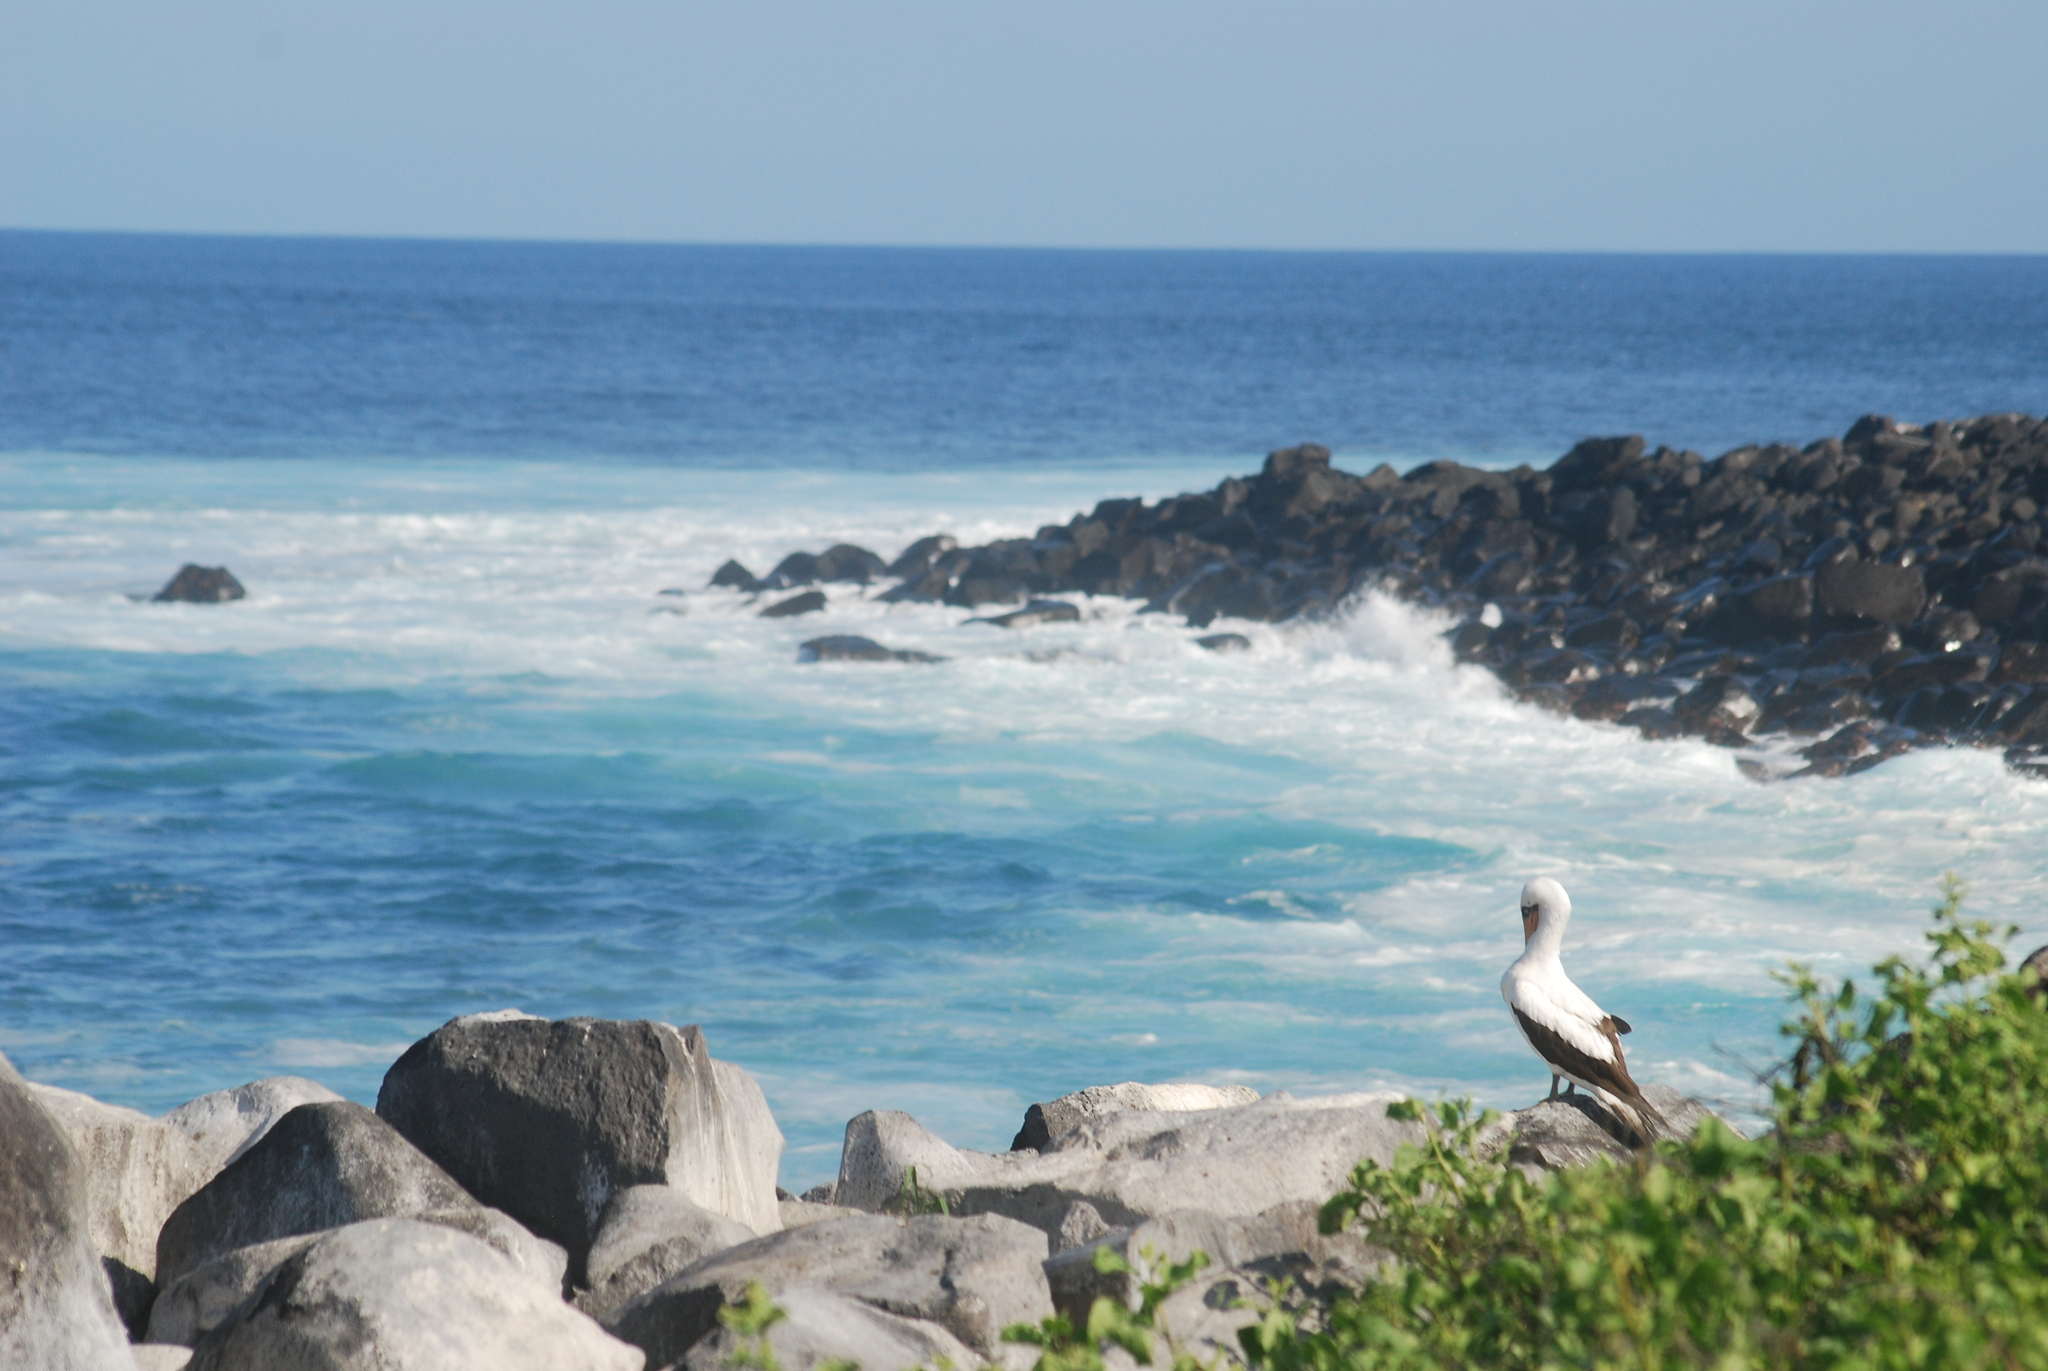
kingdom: Animalia
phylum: Chordata
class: Aves
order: Suliformes
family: Sulidae
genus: Sula
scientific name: Sula granti
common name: Nazca booby
